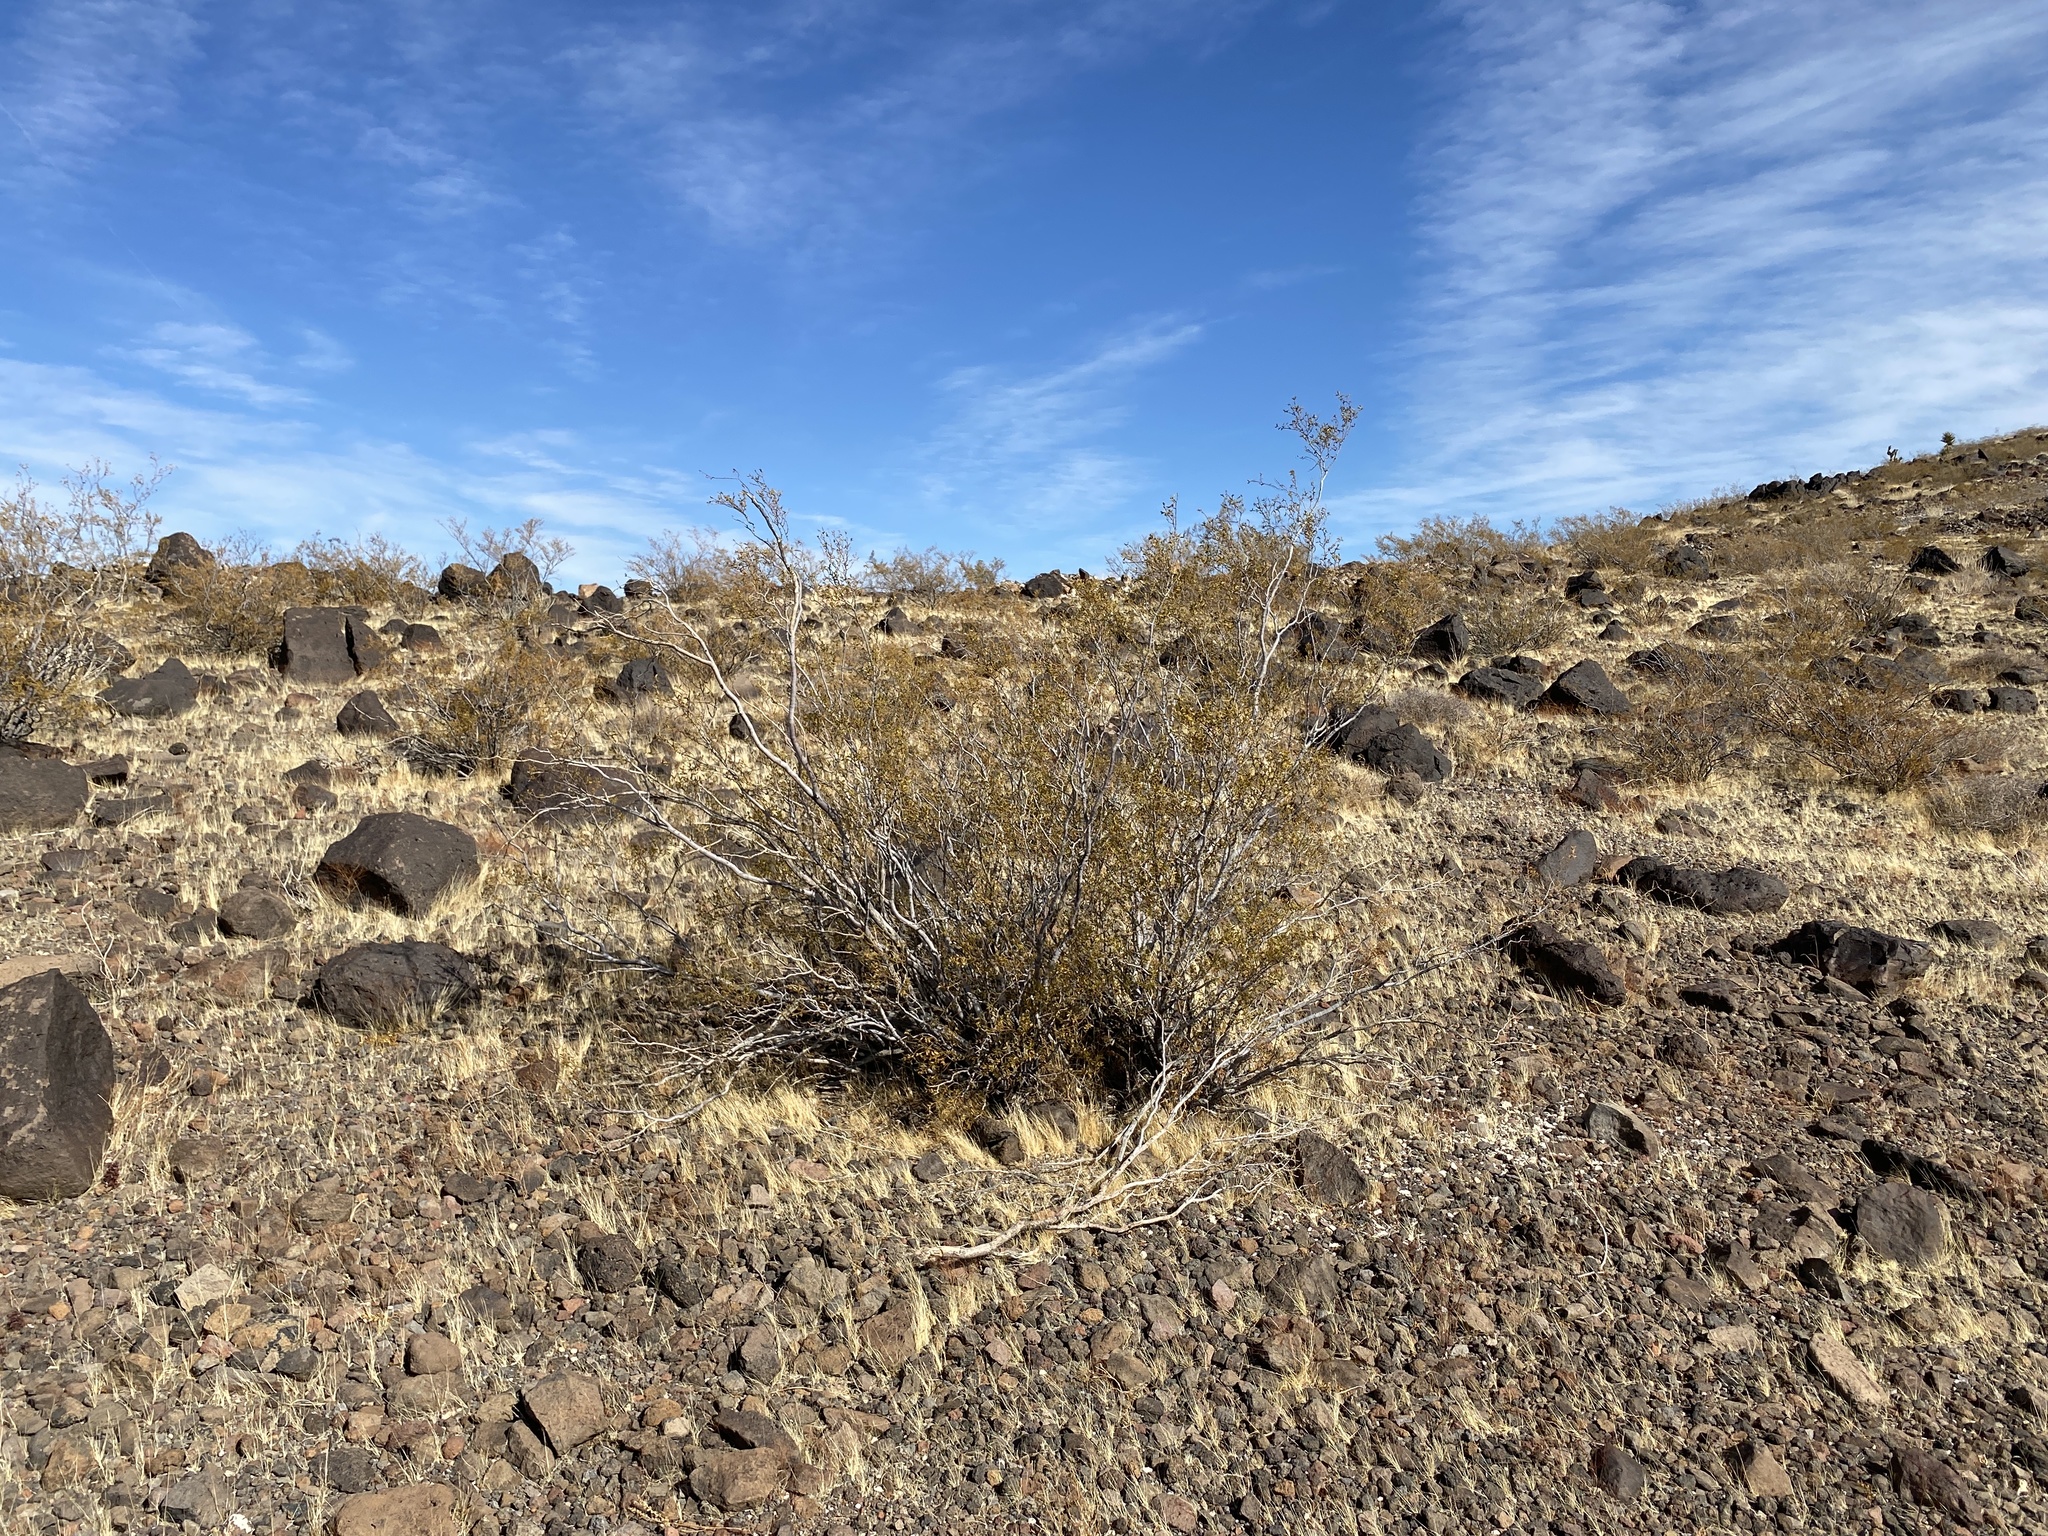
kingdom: Plantae
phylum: Tracheophyta
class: Magnoliopsida
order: Zygophyllales
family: Zygophyllaceae
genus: Larrea
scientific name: Larrea tridentata
